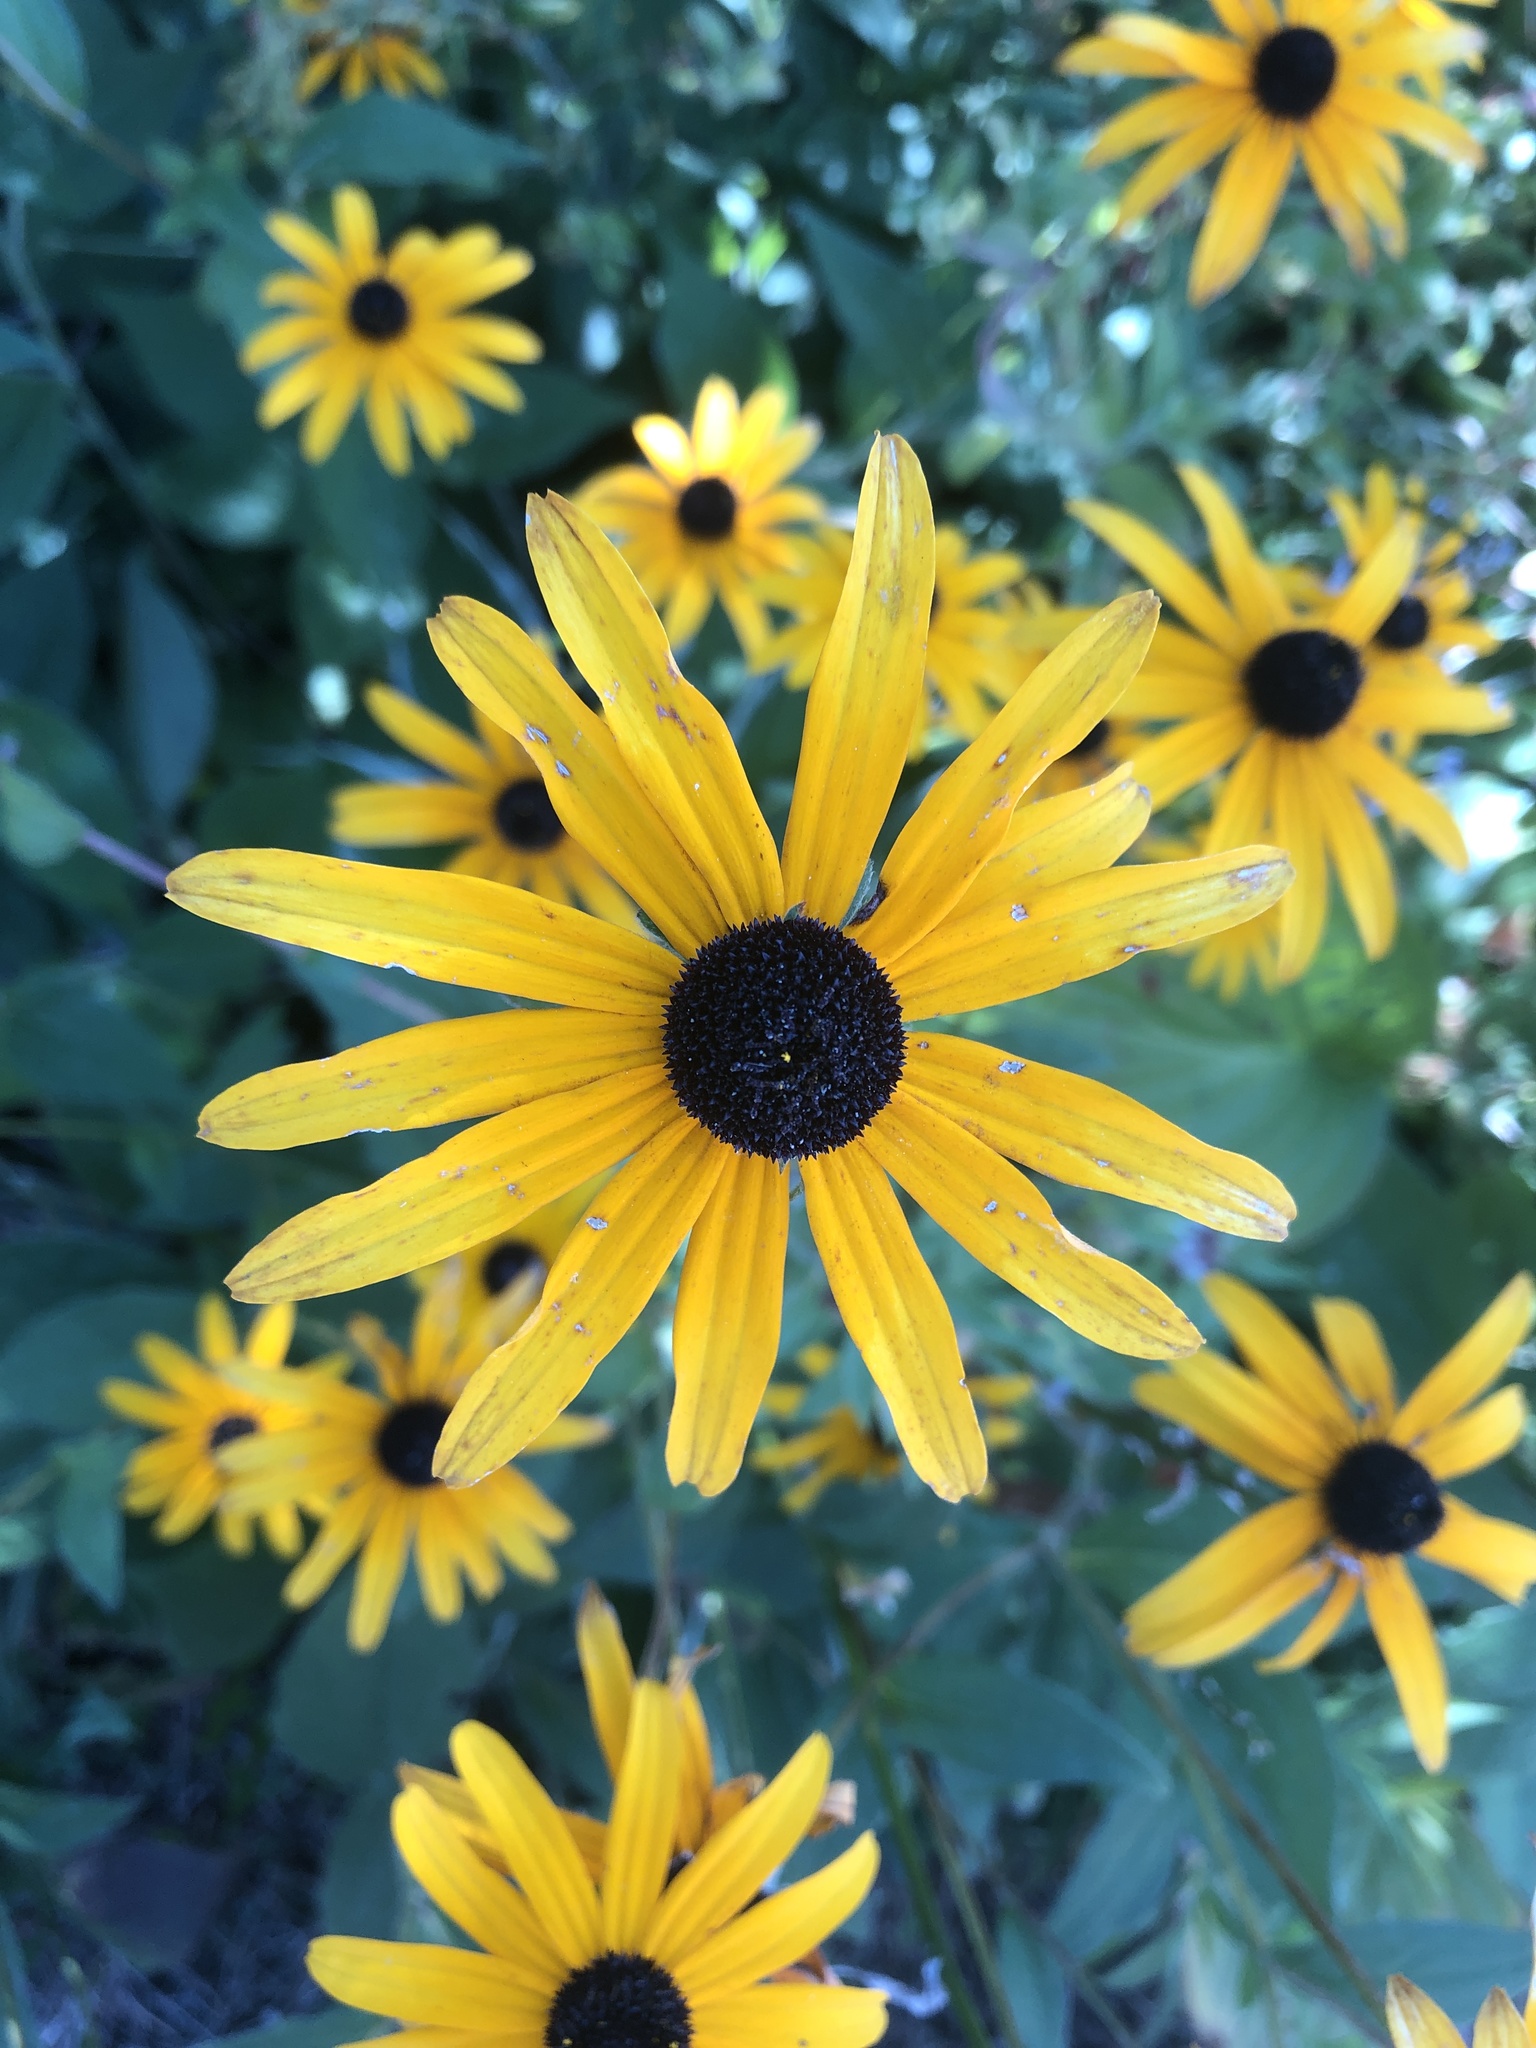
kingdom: Plantae
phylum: Tracheophyta
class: Magnoliopsida
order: Asterales
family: Asteraceae
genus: Rudbeckia
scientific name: Rudbeckia hirta
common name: Black-eyed-susan
